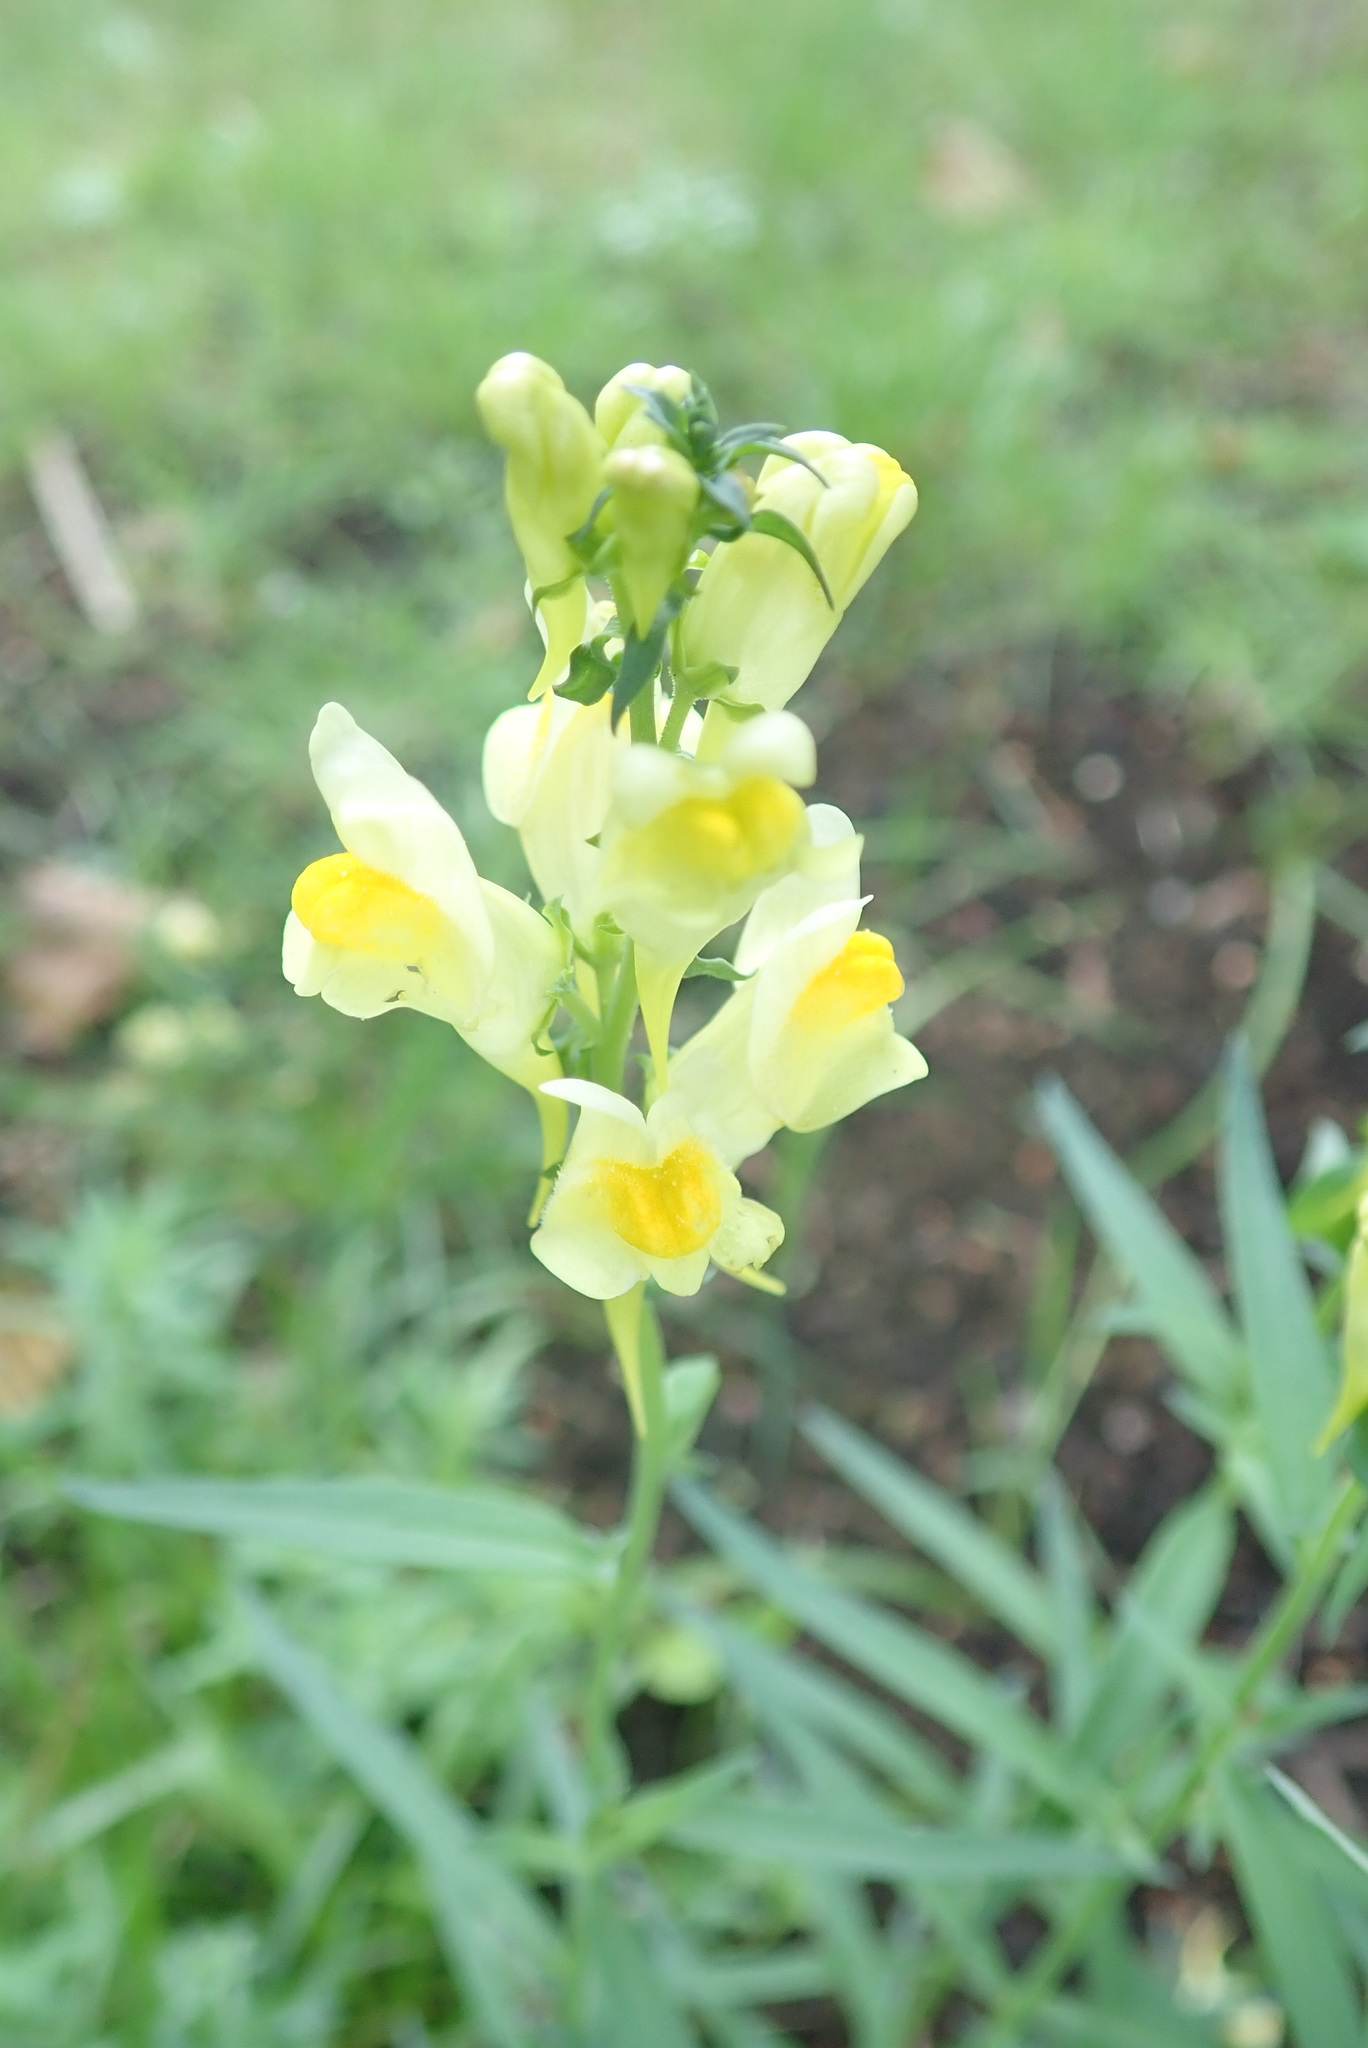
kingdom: Plantae
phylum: Tracheophyta
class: Magnoliopsida
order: Lamiales
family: Plantaginaceae
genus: Linaria
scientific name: Linaria vulgaris
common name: Butter and eggs
